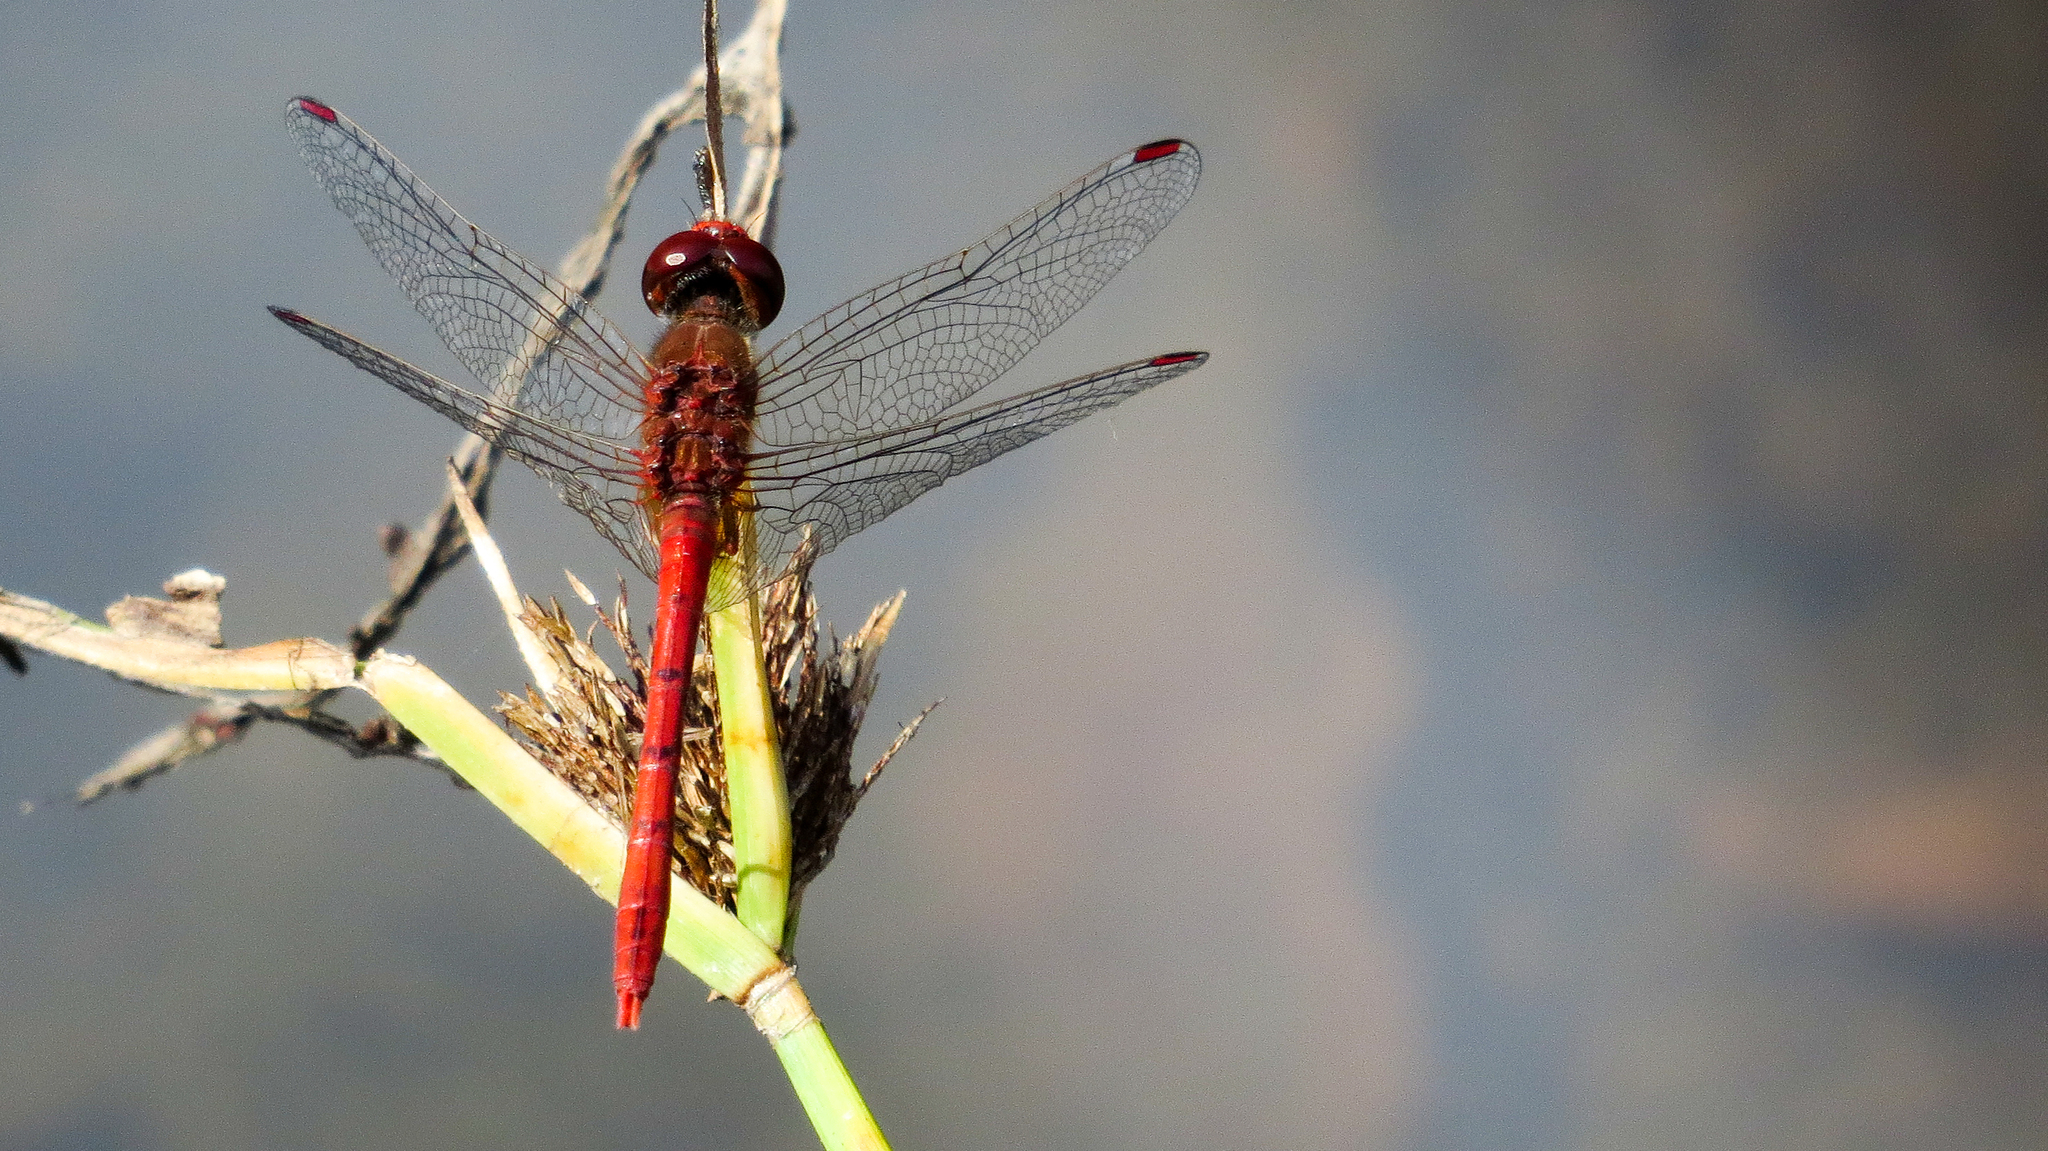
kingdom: Animalia
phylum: Arthropoda
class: Insecta
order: Odonata
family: Libellulidae
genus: Diplacodes
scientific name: Diplacodes bipunctata
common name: Red percher dragonfly
